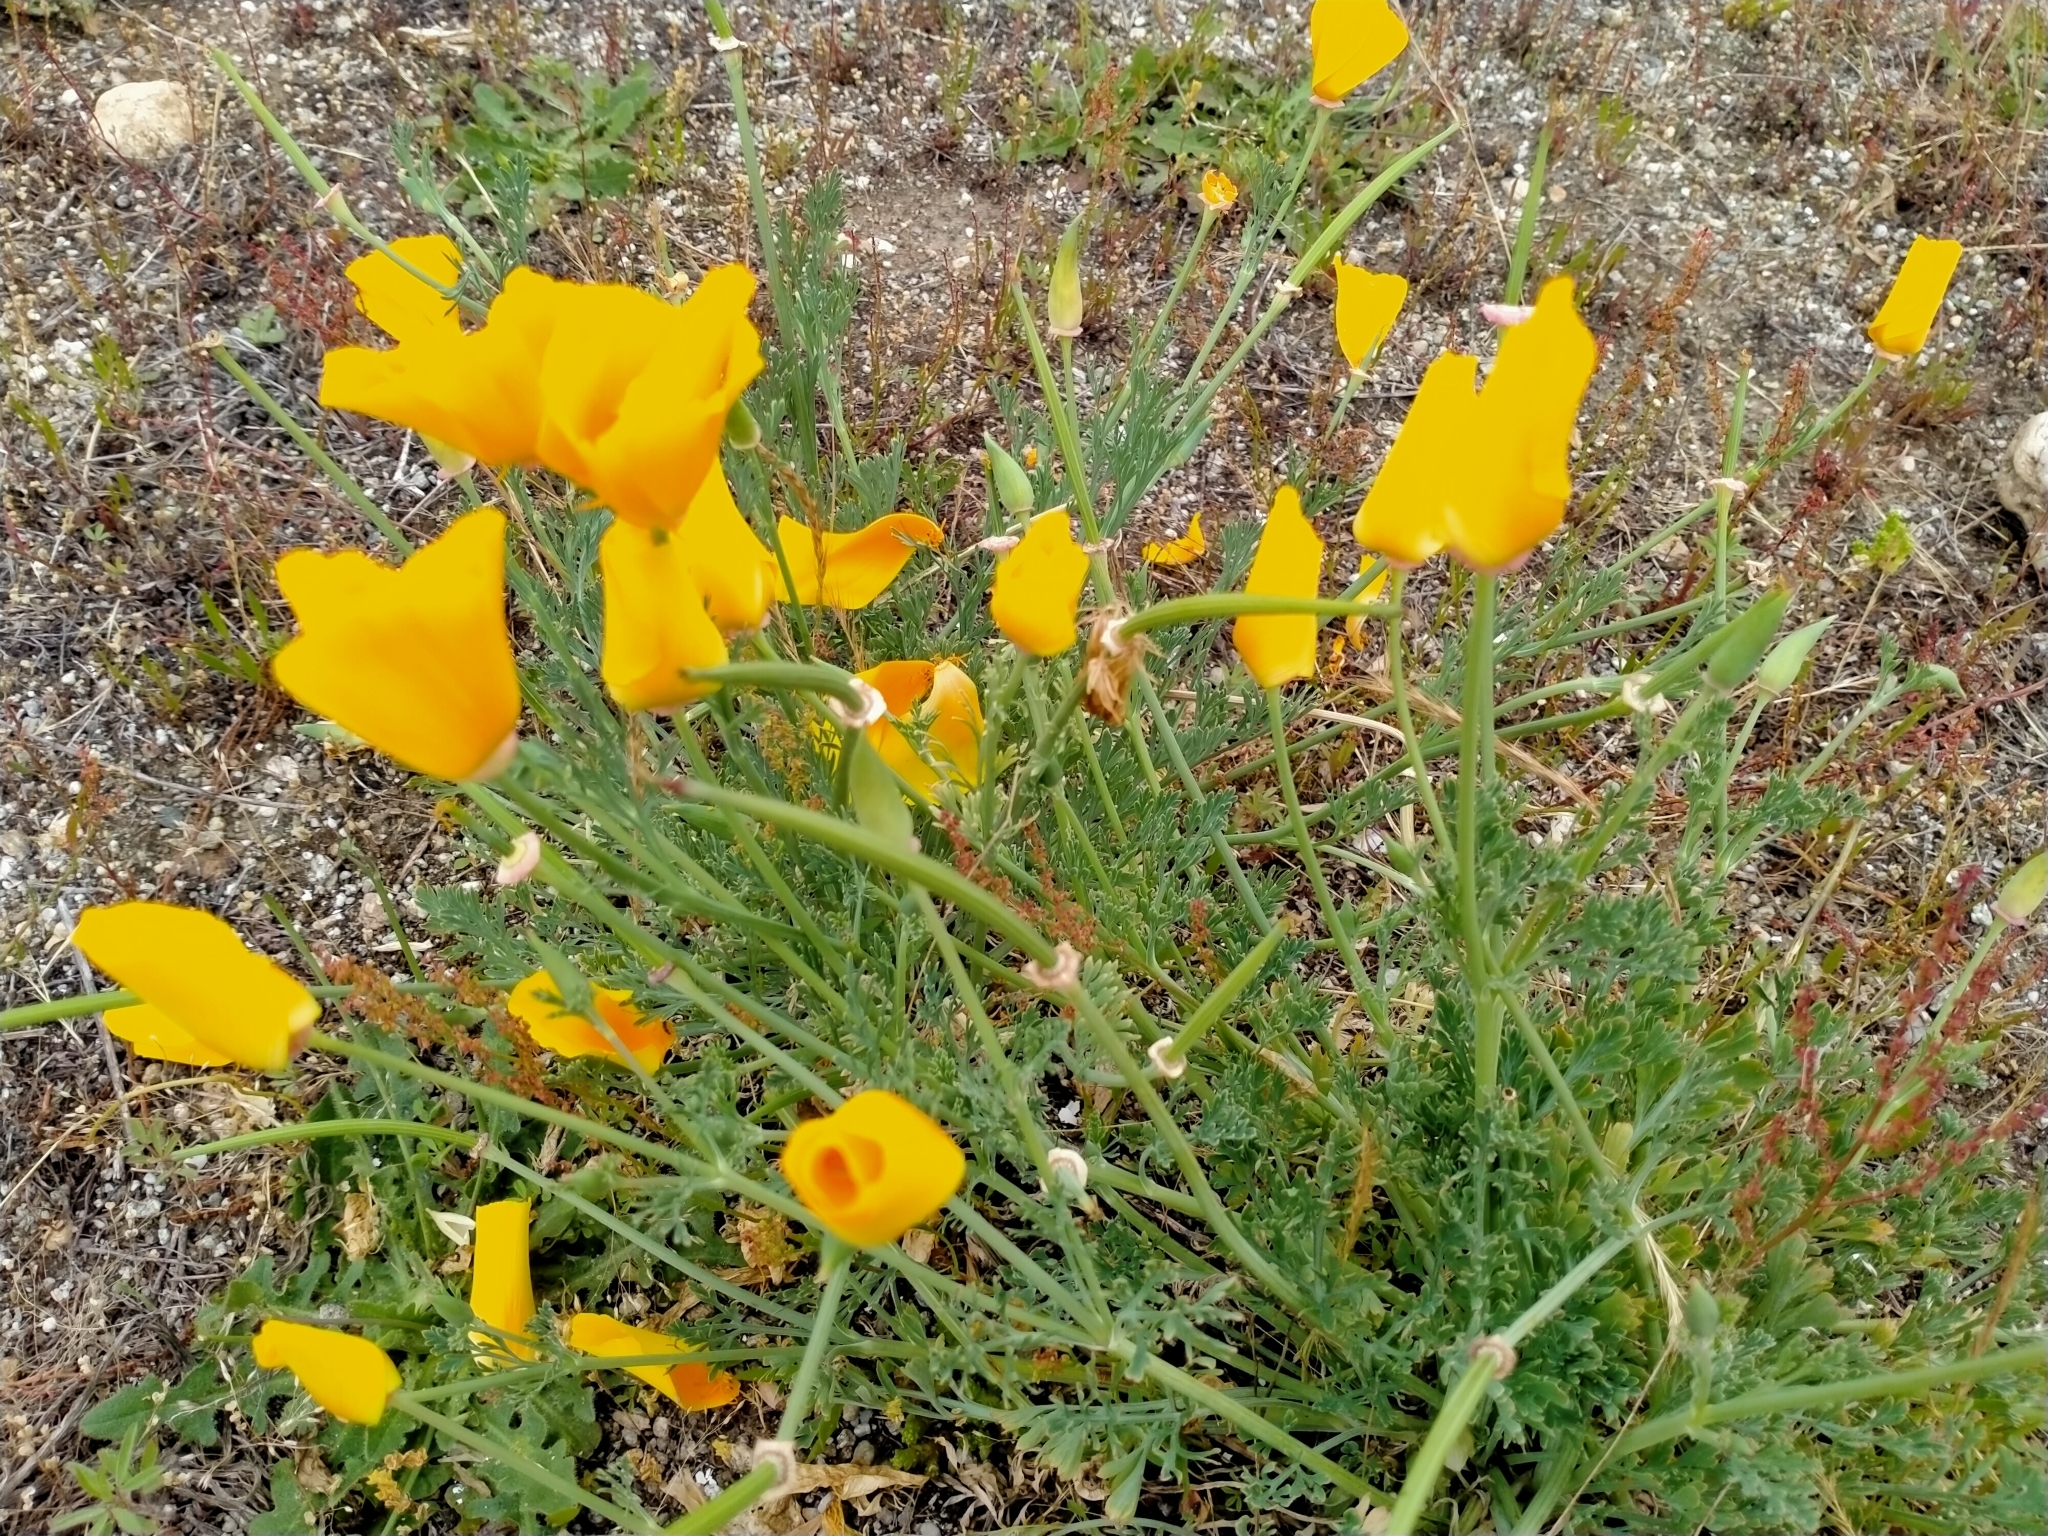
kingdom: Plantae
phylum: Tracheophyta
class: Magnoliopsida
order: Ranunculales
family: Papaveraceae
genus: Eschscholzia
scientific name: Eschscholzia californica
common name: California poppy
